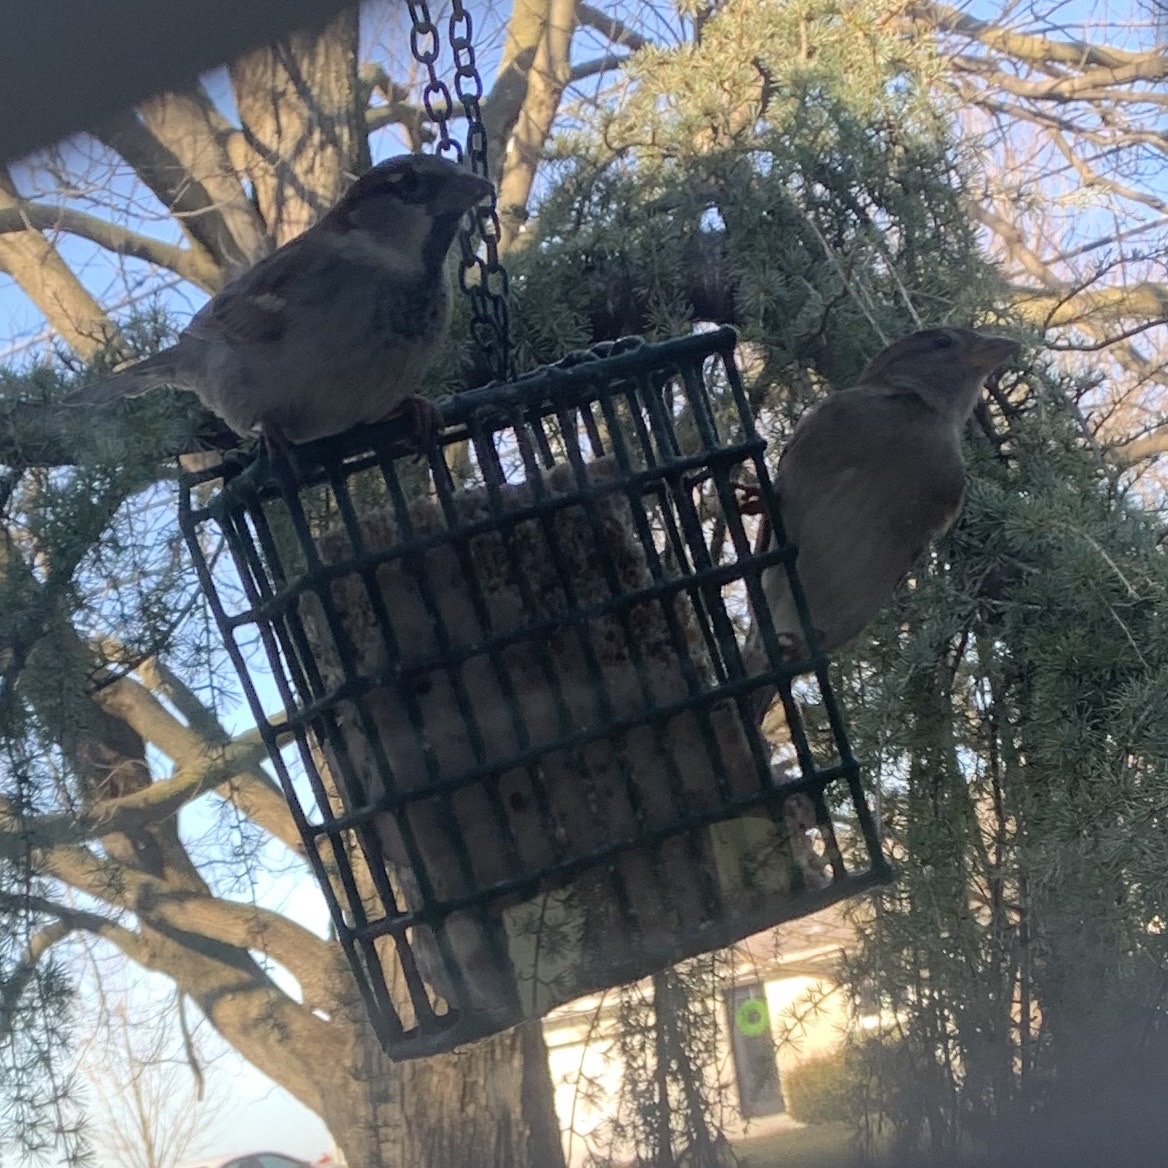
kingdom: Animalia
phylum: Chordata
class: Aves
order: Passeriformes
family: Passeridae
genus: Passer
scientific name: Passer domesticus
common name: House sparrow
